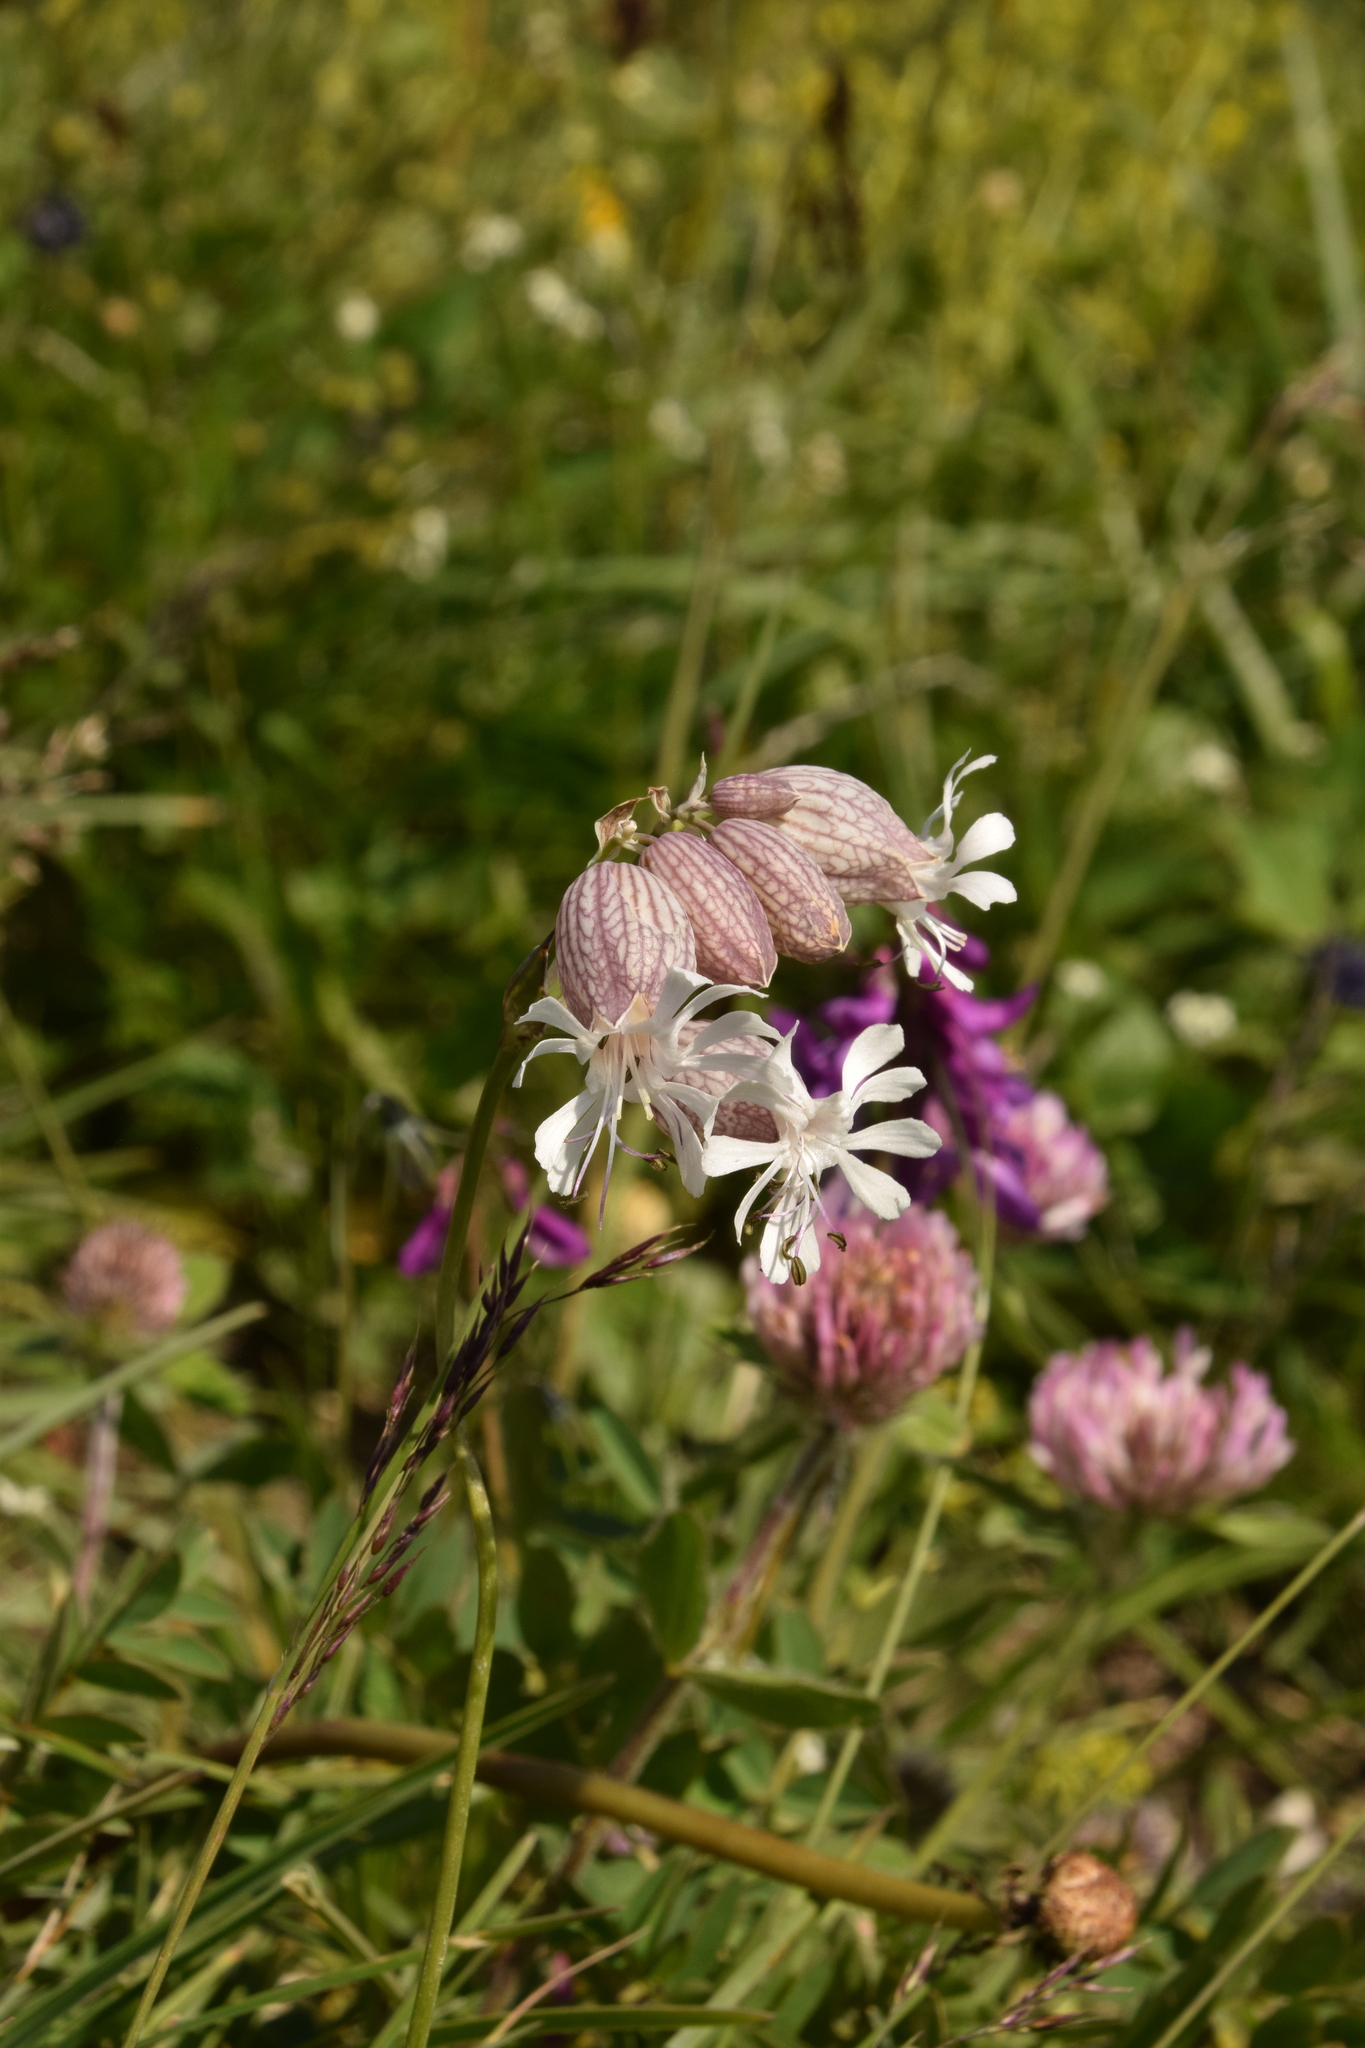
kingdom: Plantae
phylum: Tracheophyta
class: Magnoliopsida
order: Caryophyllales
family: Caryophyllaceae
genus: Silene
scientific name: Silene vulgaris
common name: Bladder campion
